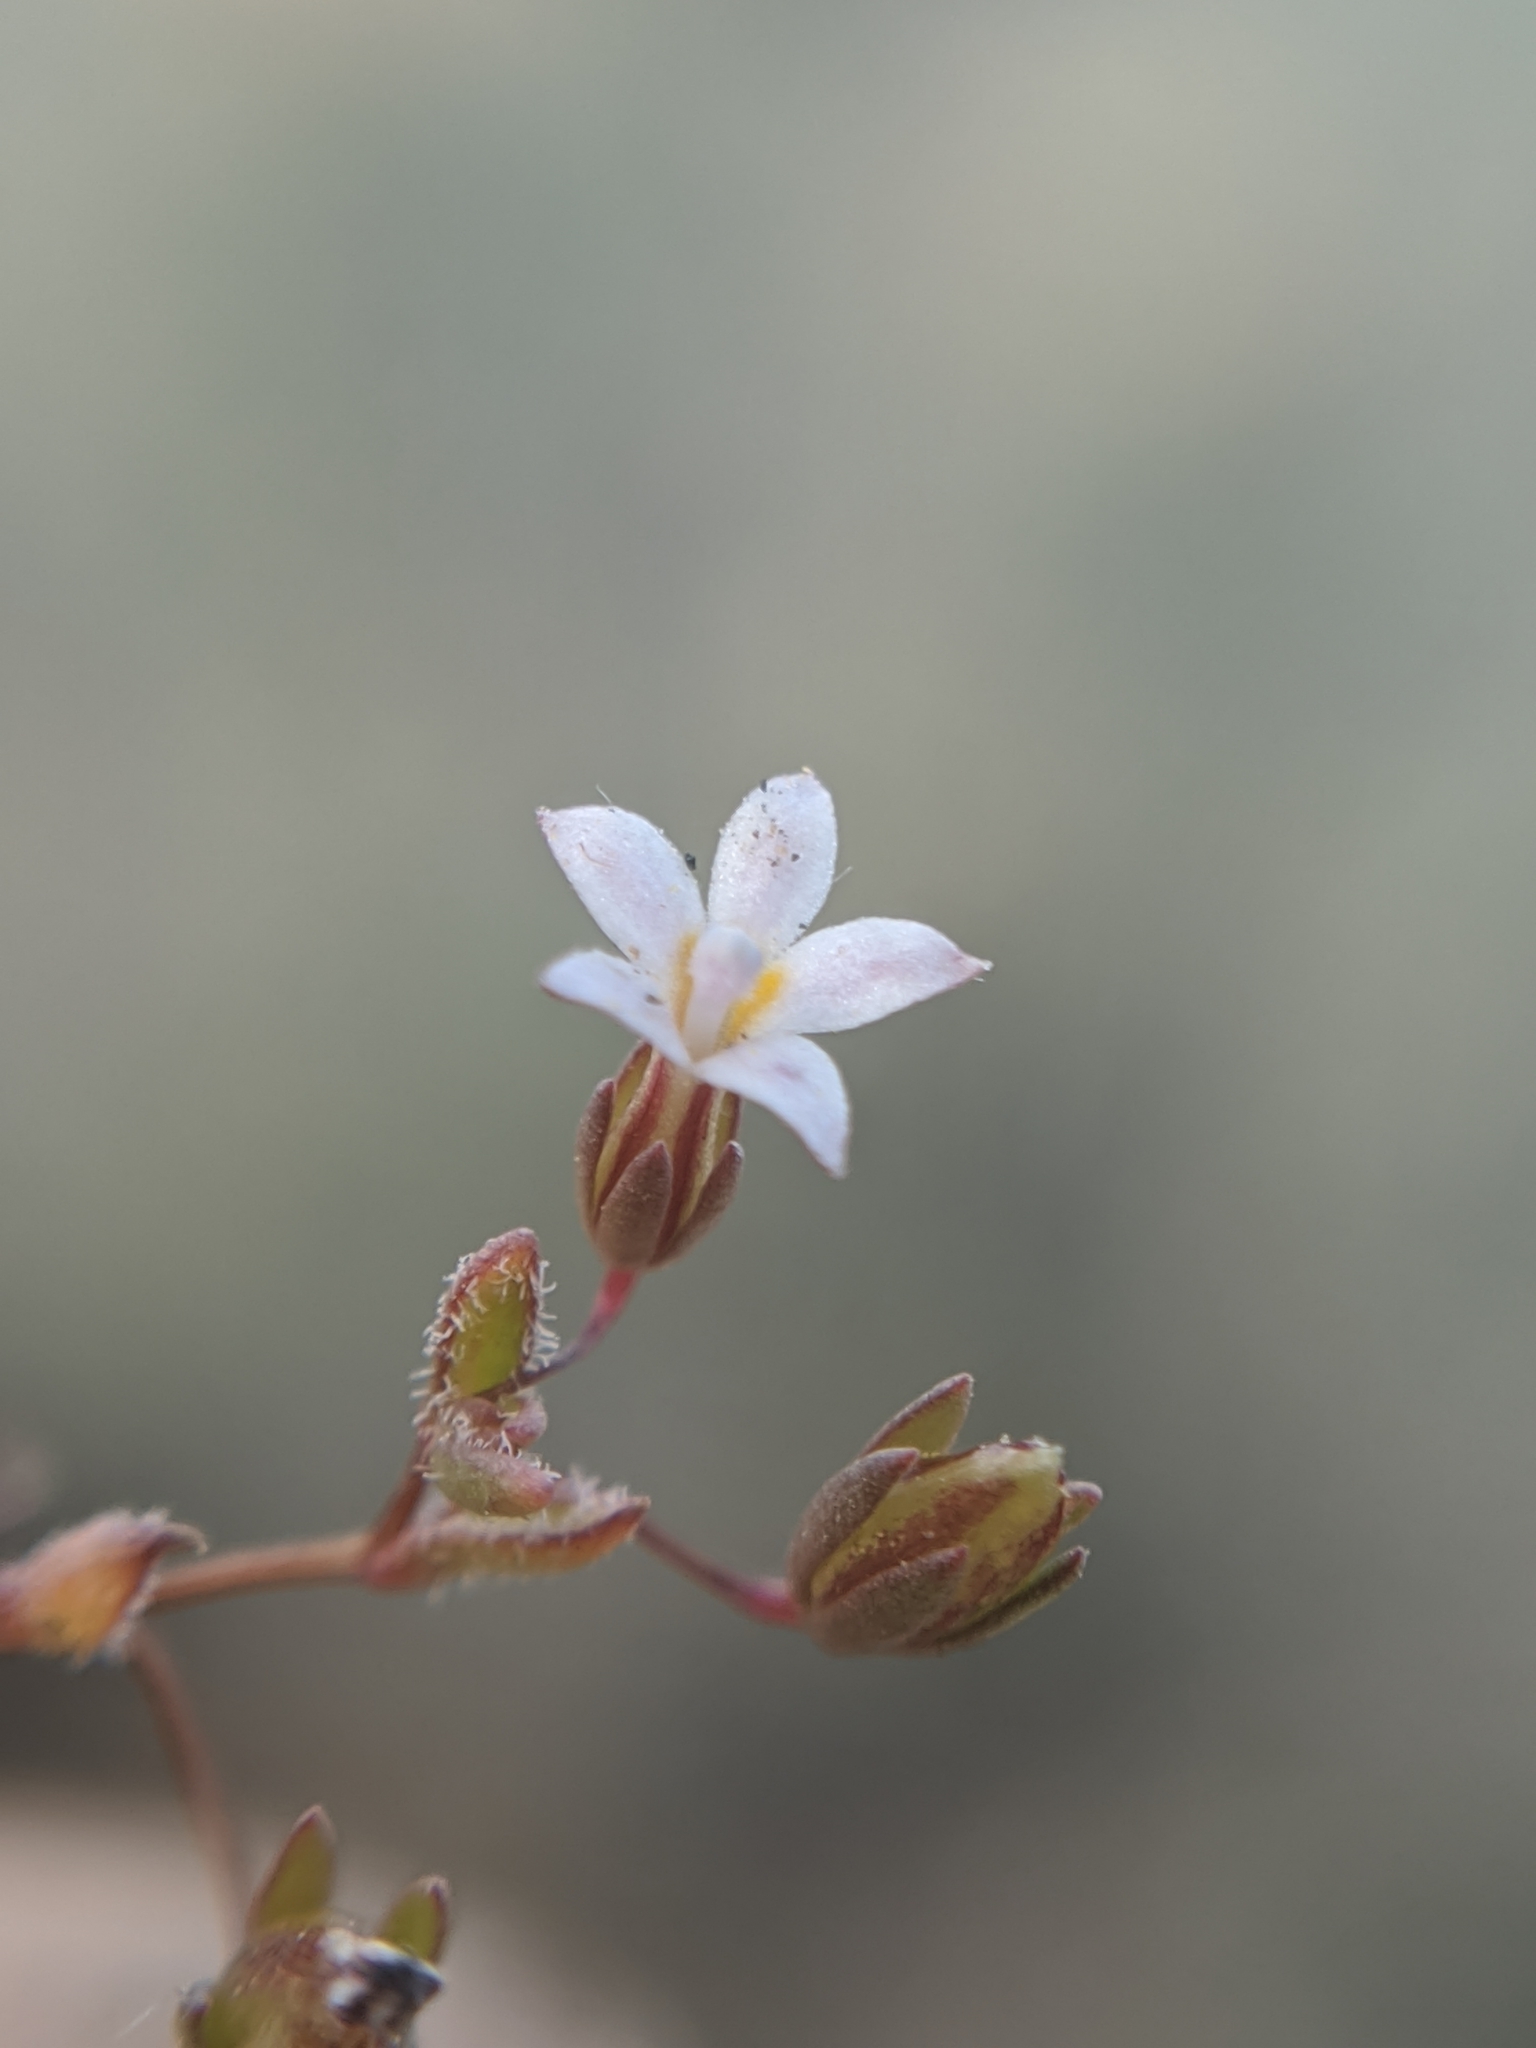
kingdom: Plantae
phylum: Tracheophyta
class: Magnoliopsida
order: Asterales
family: Campanulaceae
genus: Nemacladus
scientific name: Nemacladus breviflorus
